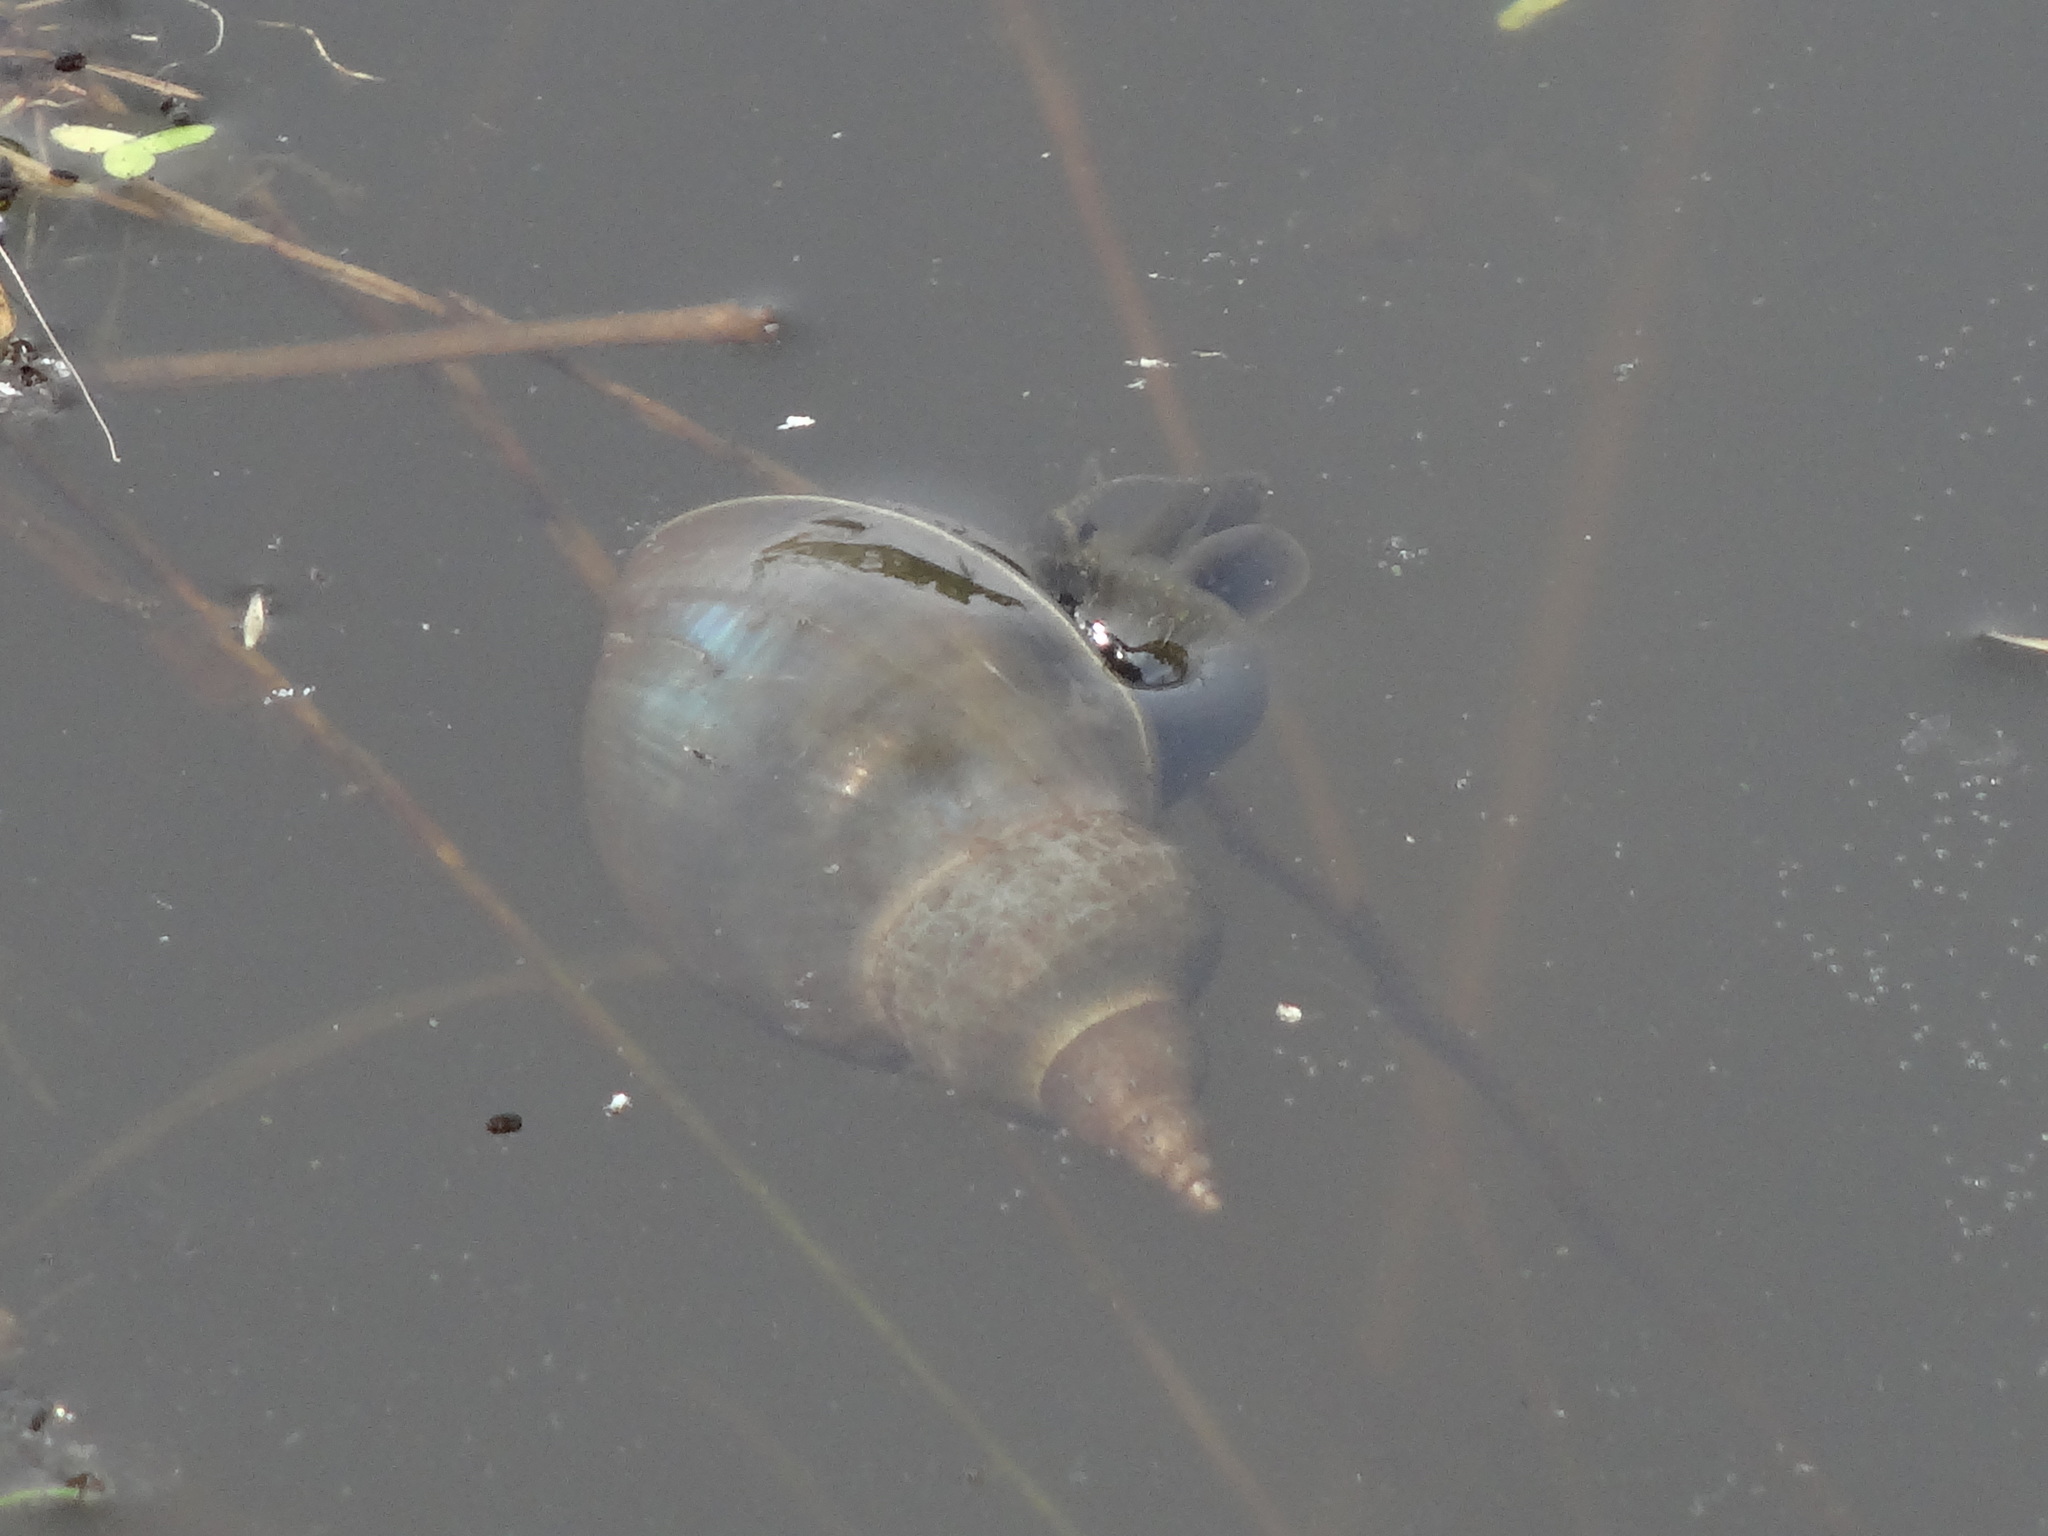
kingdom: Animalia
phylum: Mollusca
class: Gastropoda
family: Lymnaeidae
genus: Lymnaea
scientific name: Lymnaea stagnalis
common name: Great pond snail
